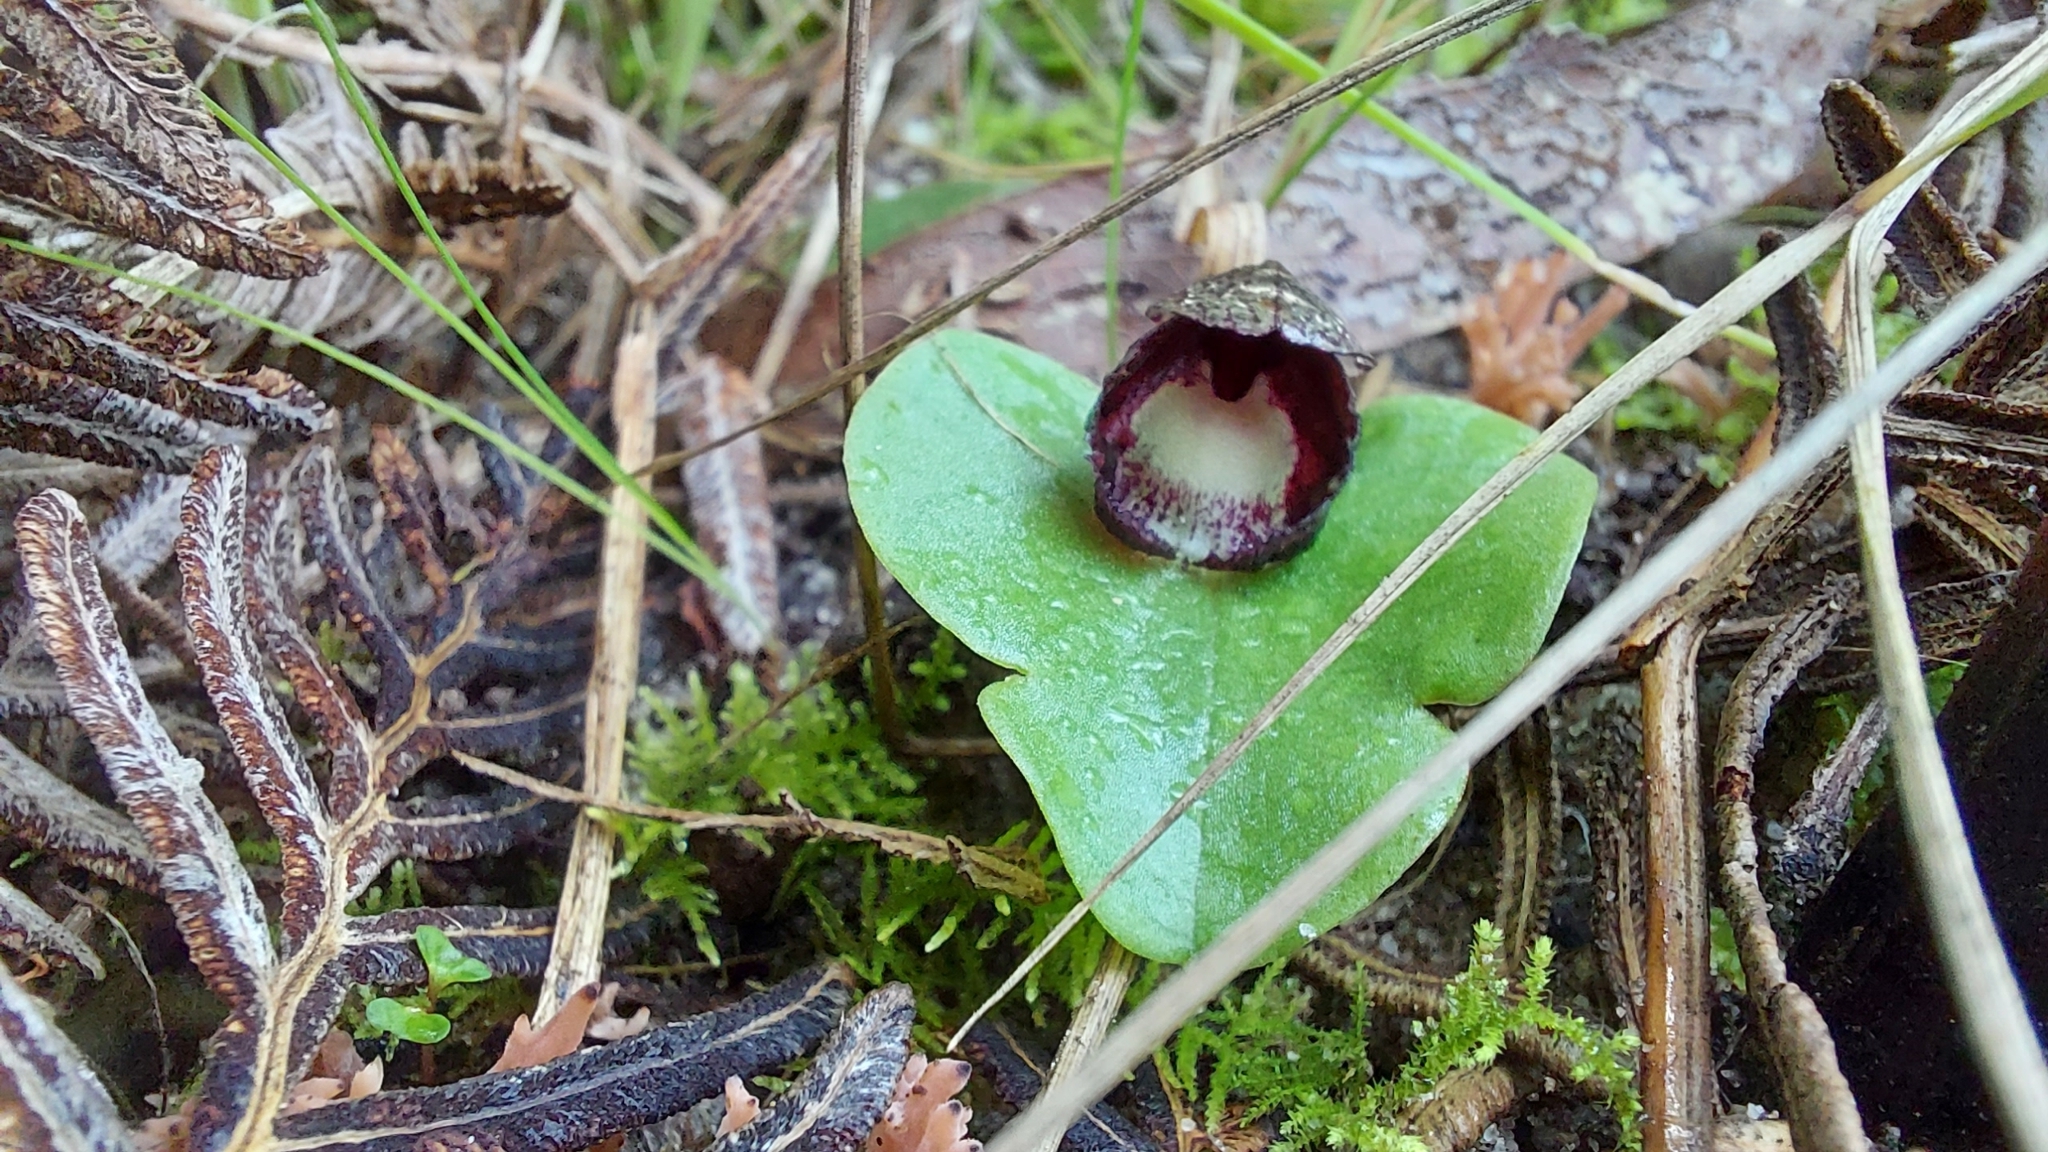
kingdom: Plantae
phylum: Tracheophyta
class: Liliopsida
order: Asparagales
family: Orchidaceae
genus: Corybas
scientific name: Corybas incurvus
